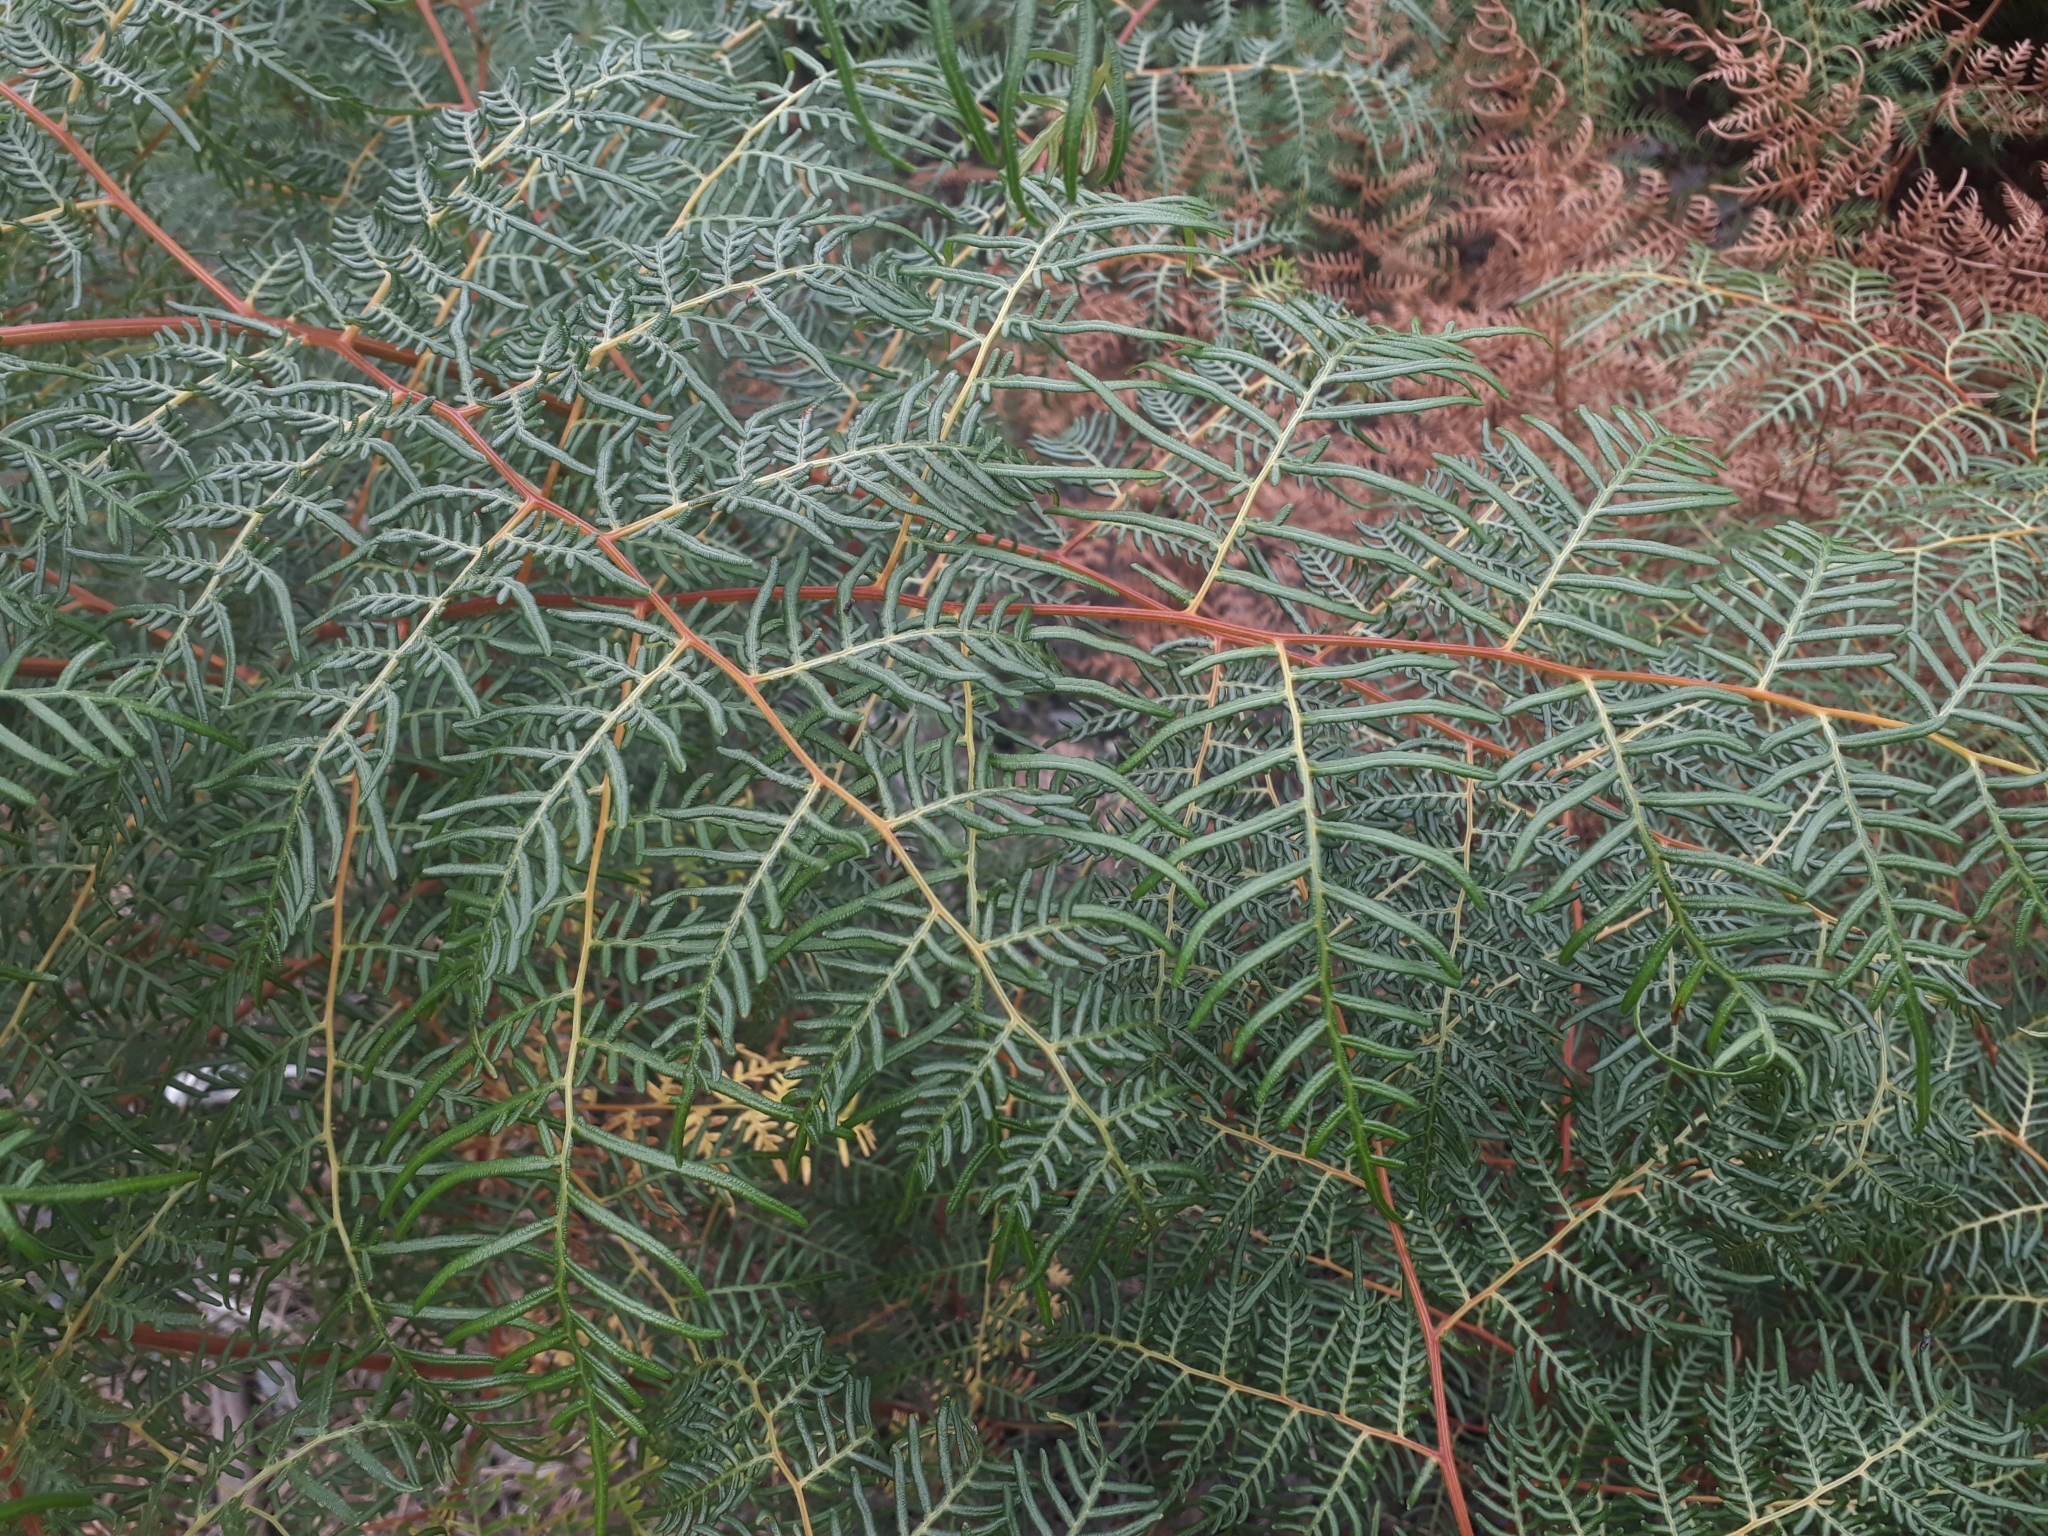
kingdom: Plantae
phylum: Tracheophyta
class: Polypodiopsida
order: Polypodiales
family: Dennstaedtiaceae
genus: Pteridium
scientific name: Pteridium esculentum
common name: Bracken fern
